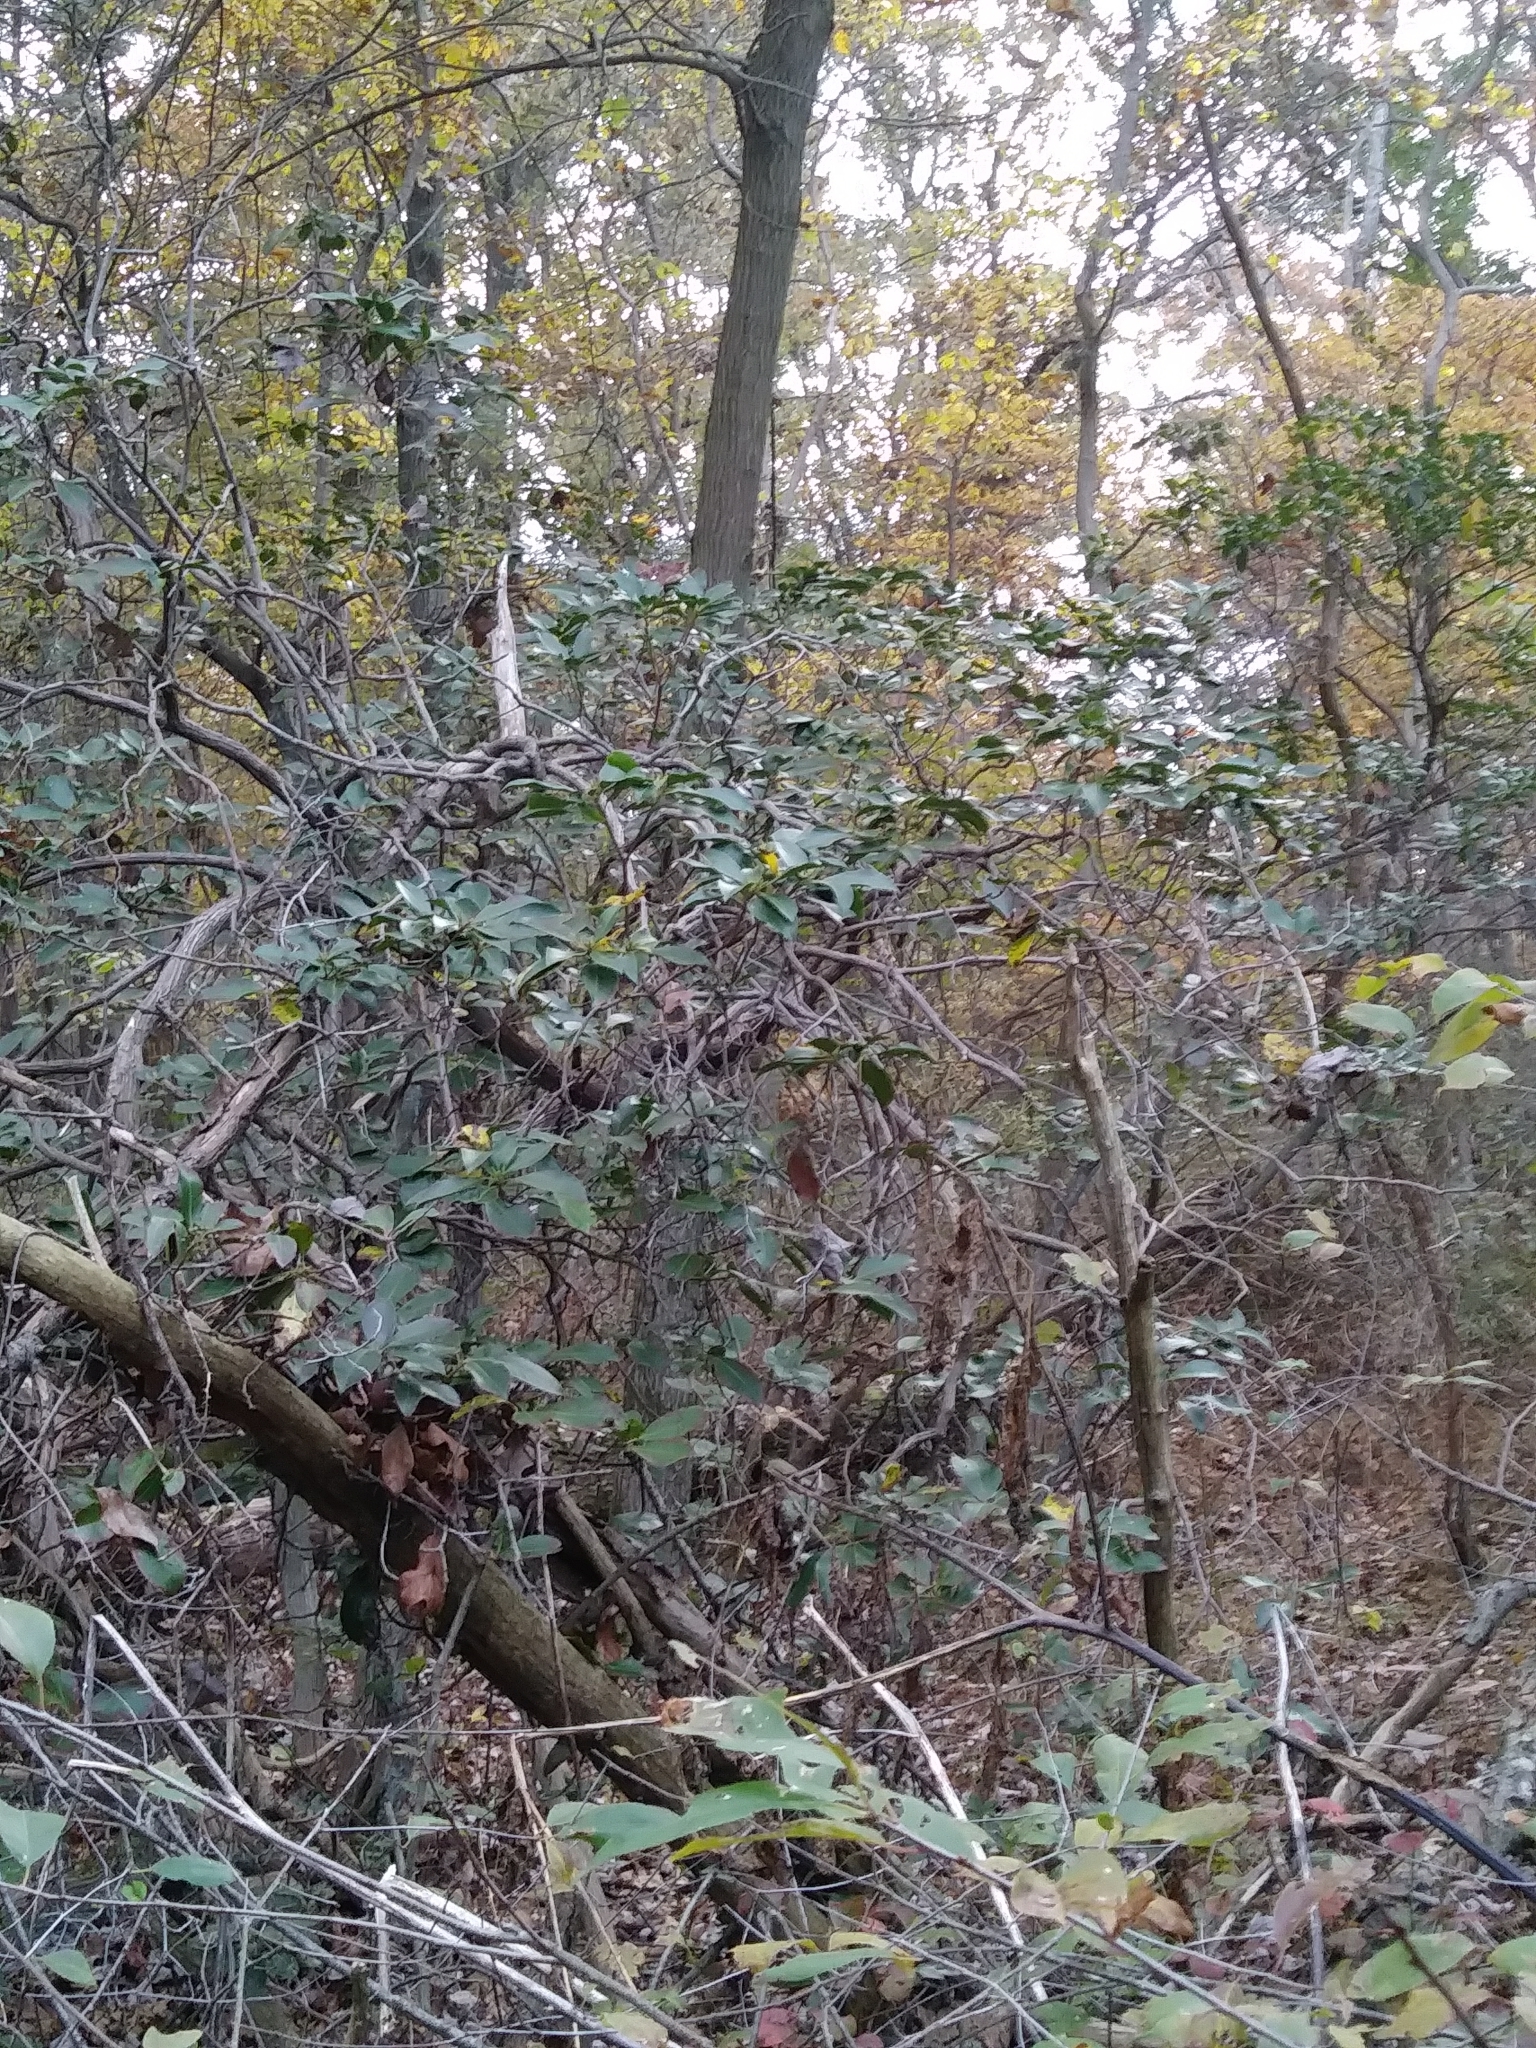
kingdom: Plantae
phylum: Tracheophyta
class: Magnoliopsida
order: Ericales
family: Ericaceae
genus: Kalmia
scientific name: Kalmia latifolia
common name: Mountain-laurel
